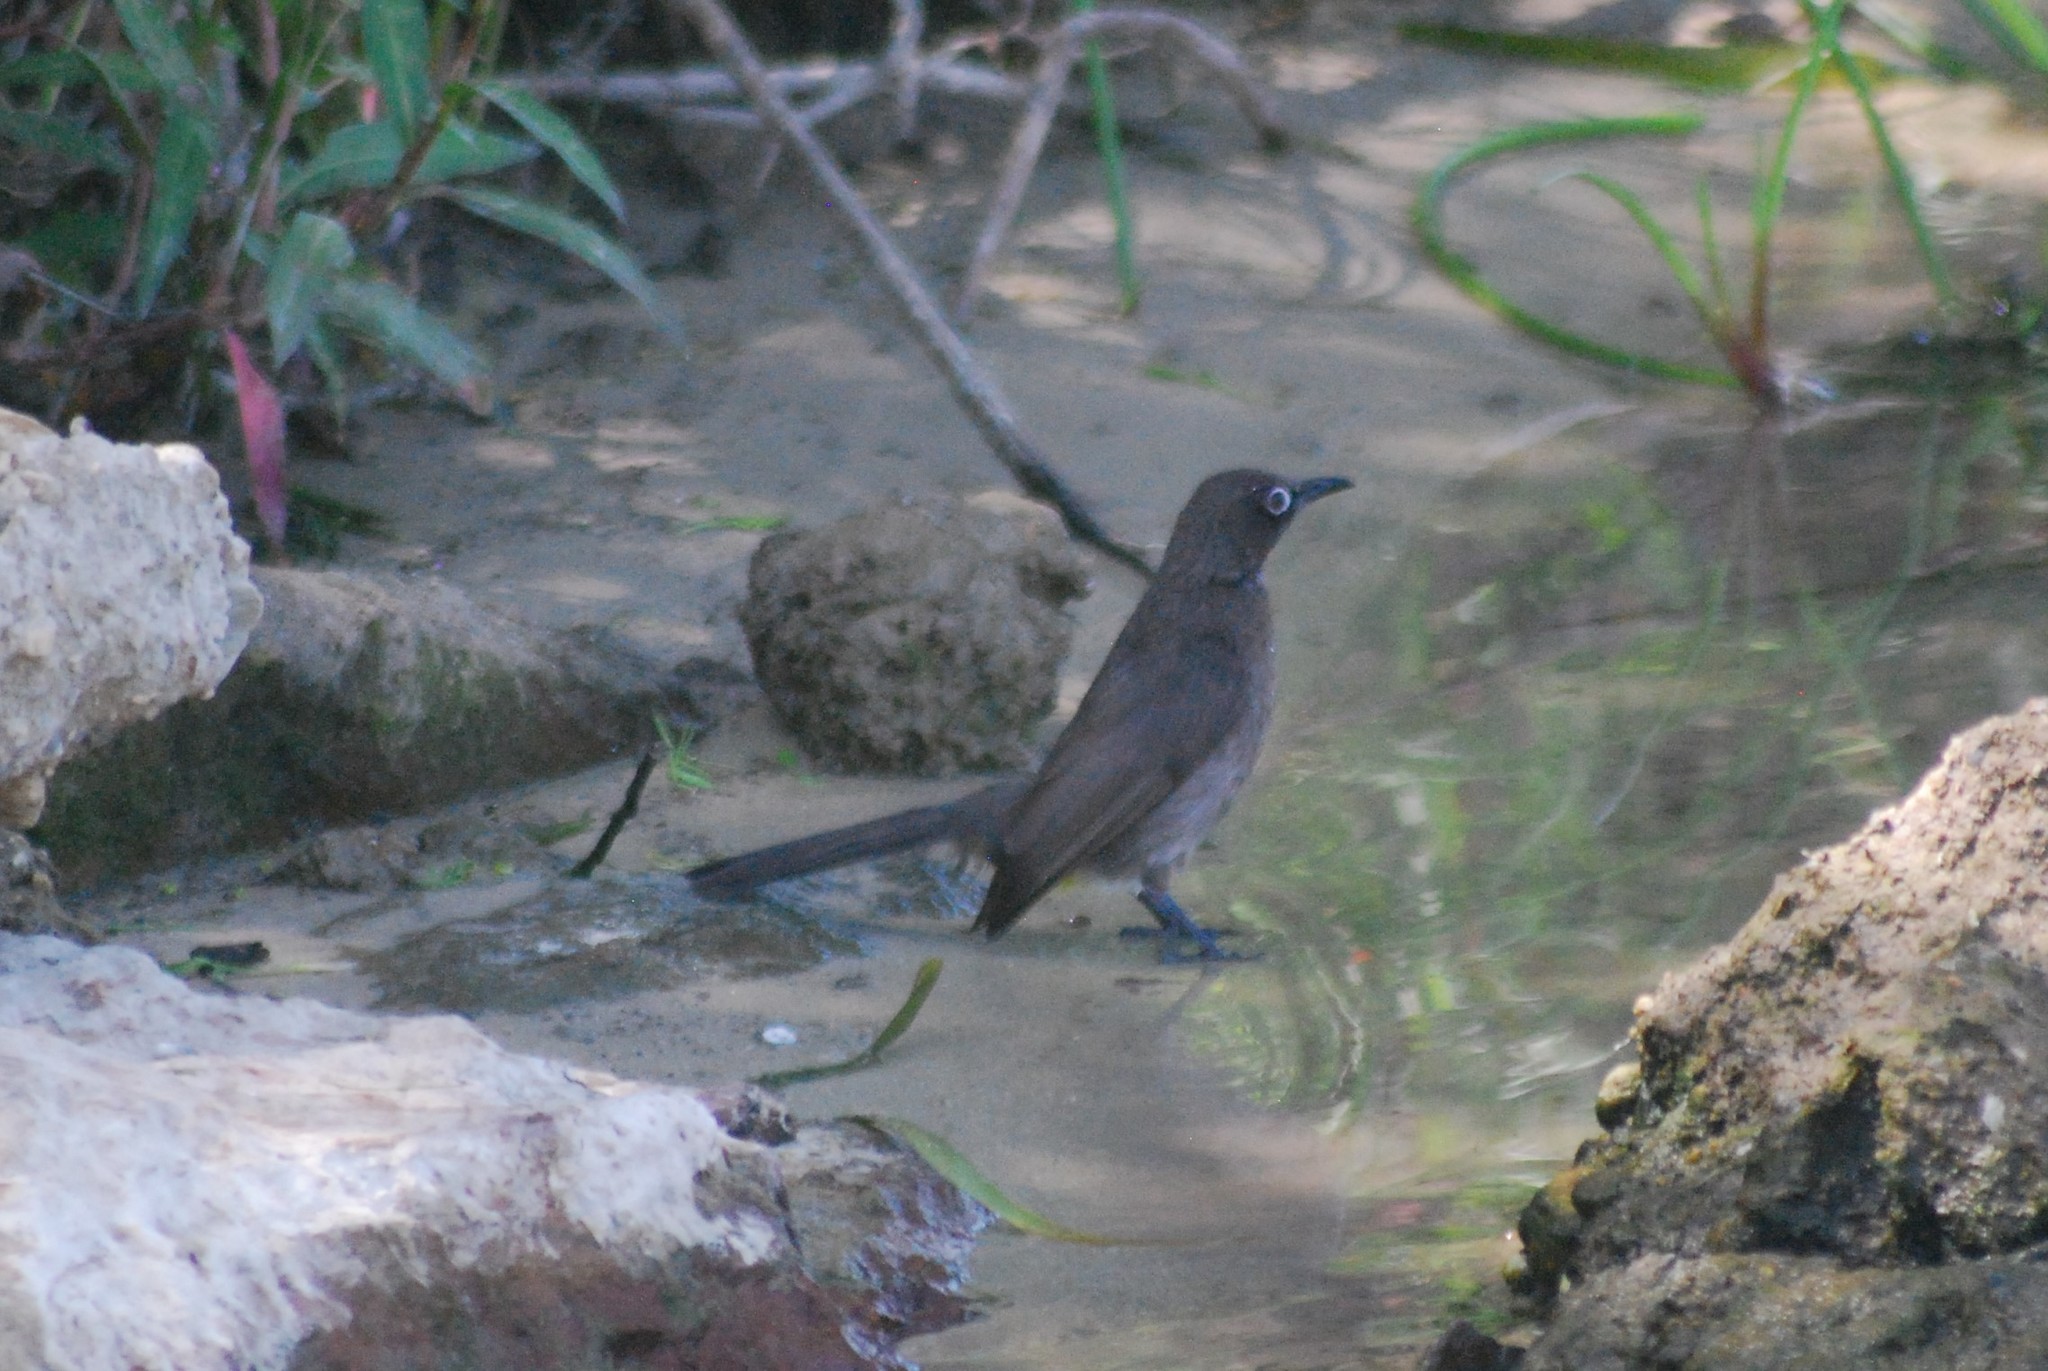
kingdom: Animalia
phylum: Chordata
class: Aves
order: Passeriformes
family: Pycnonotidae
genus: Pycnonotus
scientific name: Pycnonotus capensis
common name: Cape bulbul
